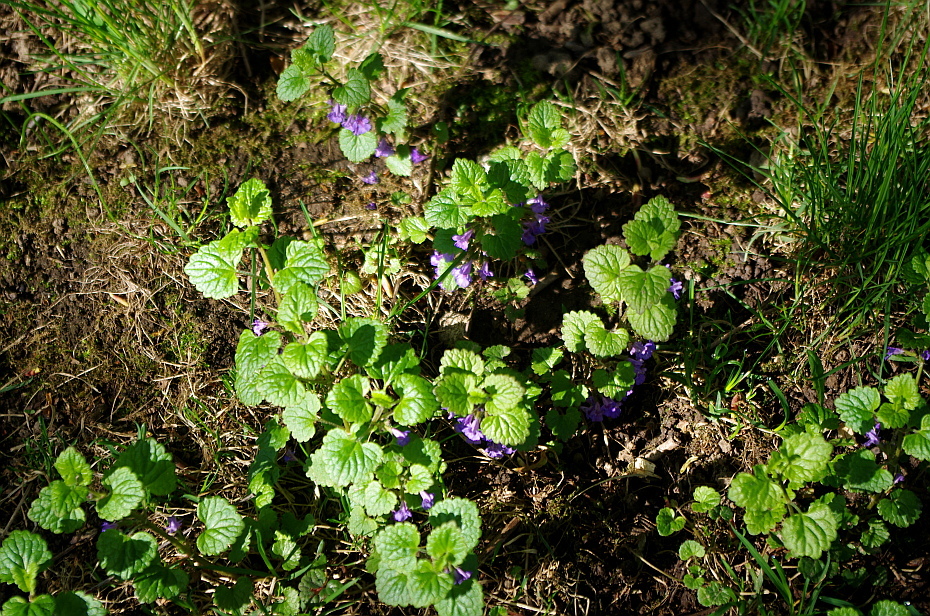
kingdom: Plantae
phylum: Tracheophyta
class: Magnoliopsida
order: Lamiales
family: Lamiaceae
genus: Glechoma
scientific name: Glechoma hederacea
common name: Ground ivy
